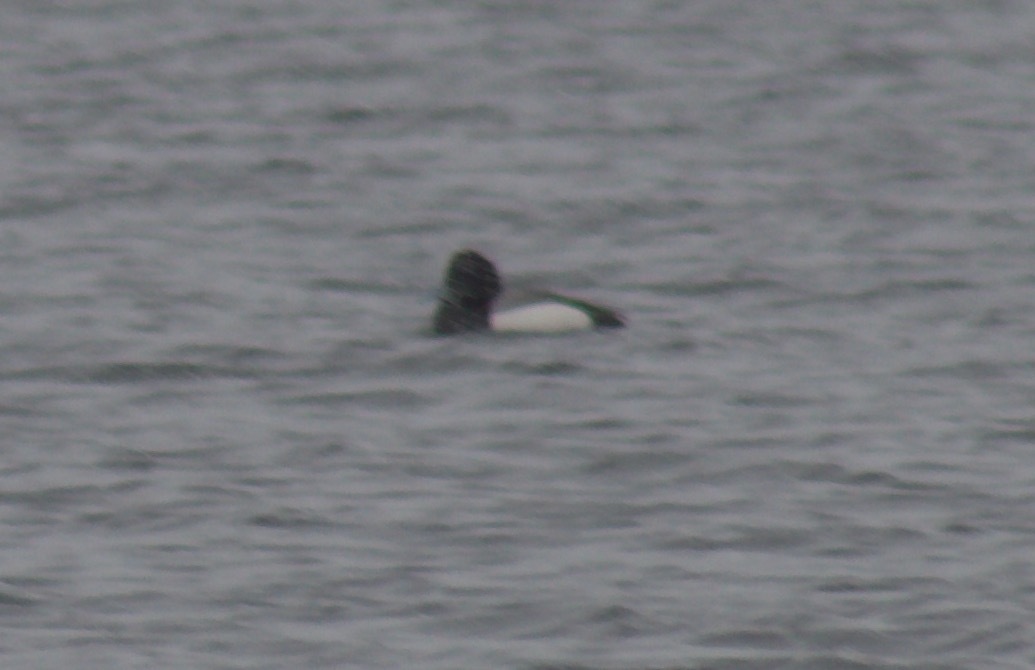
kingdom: Animalia
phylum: Chordata
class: Aves
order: Anseriformes
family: Anatidae
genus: Aythya
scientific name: Aythya marila
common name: Greater scaup
